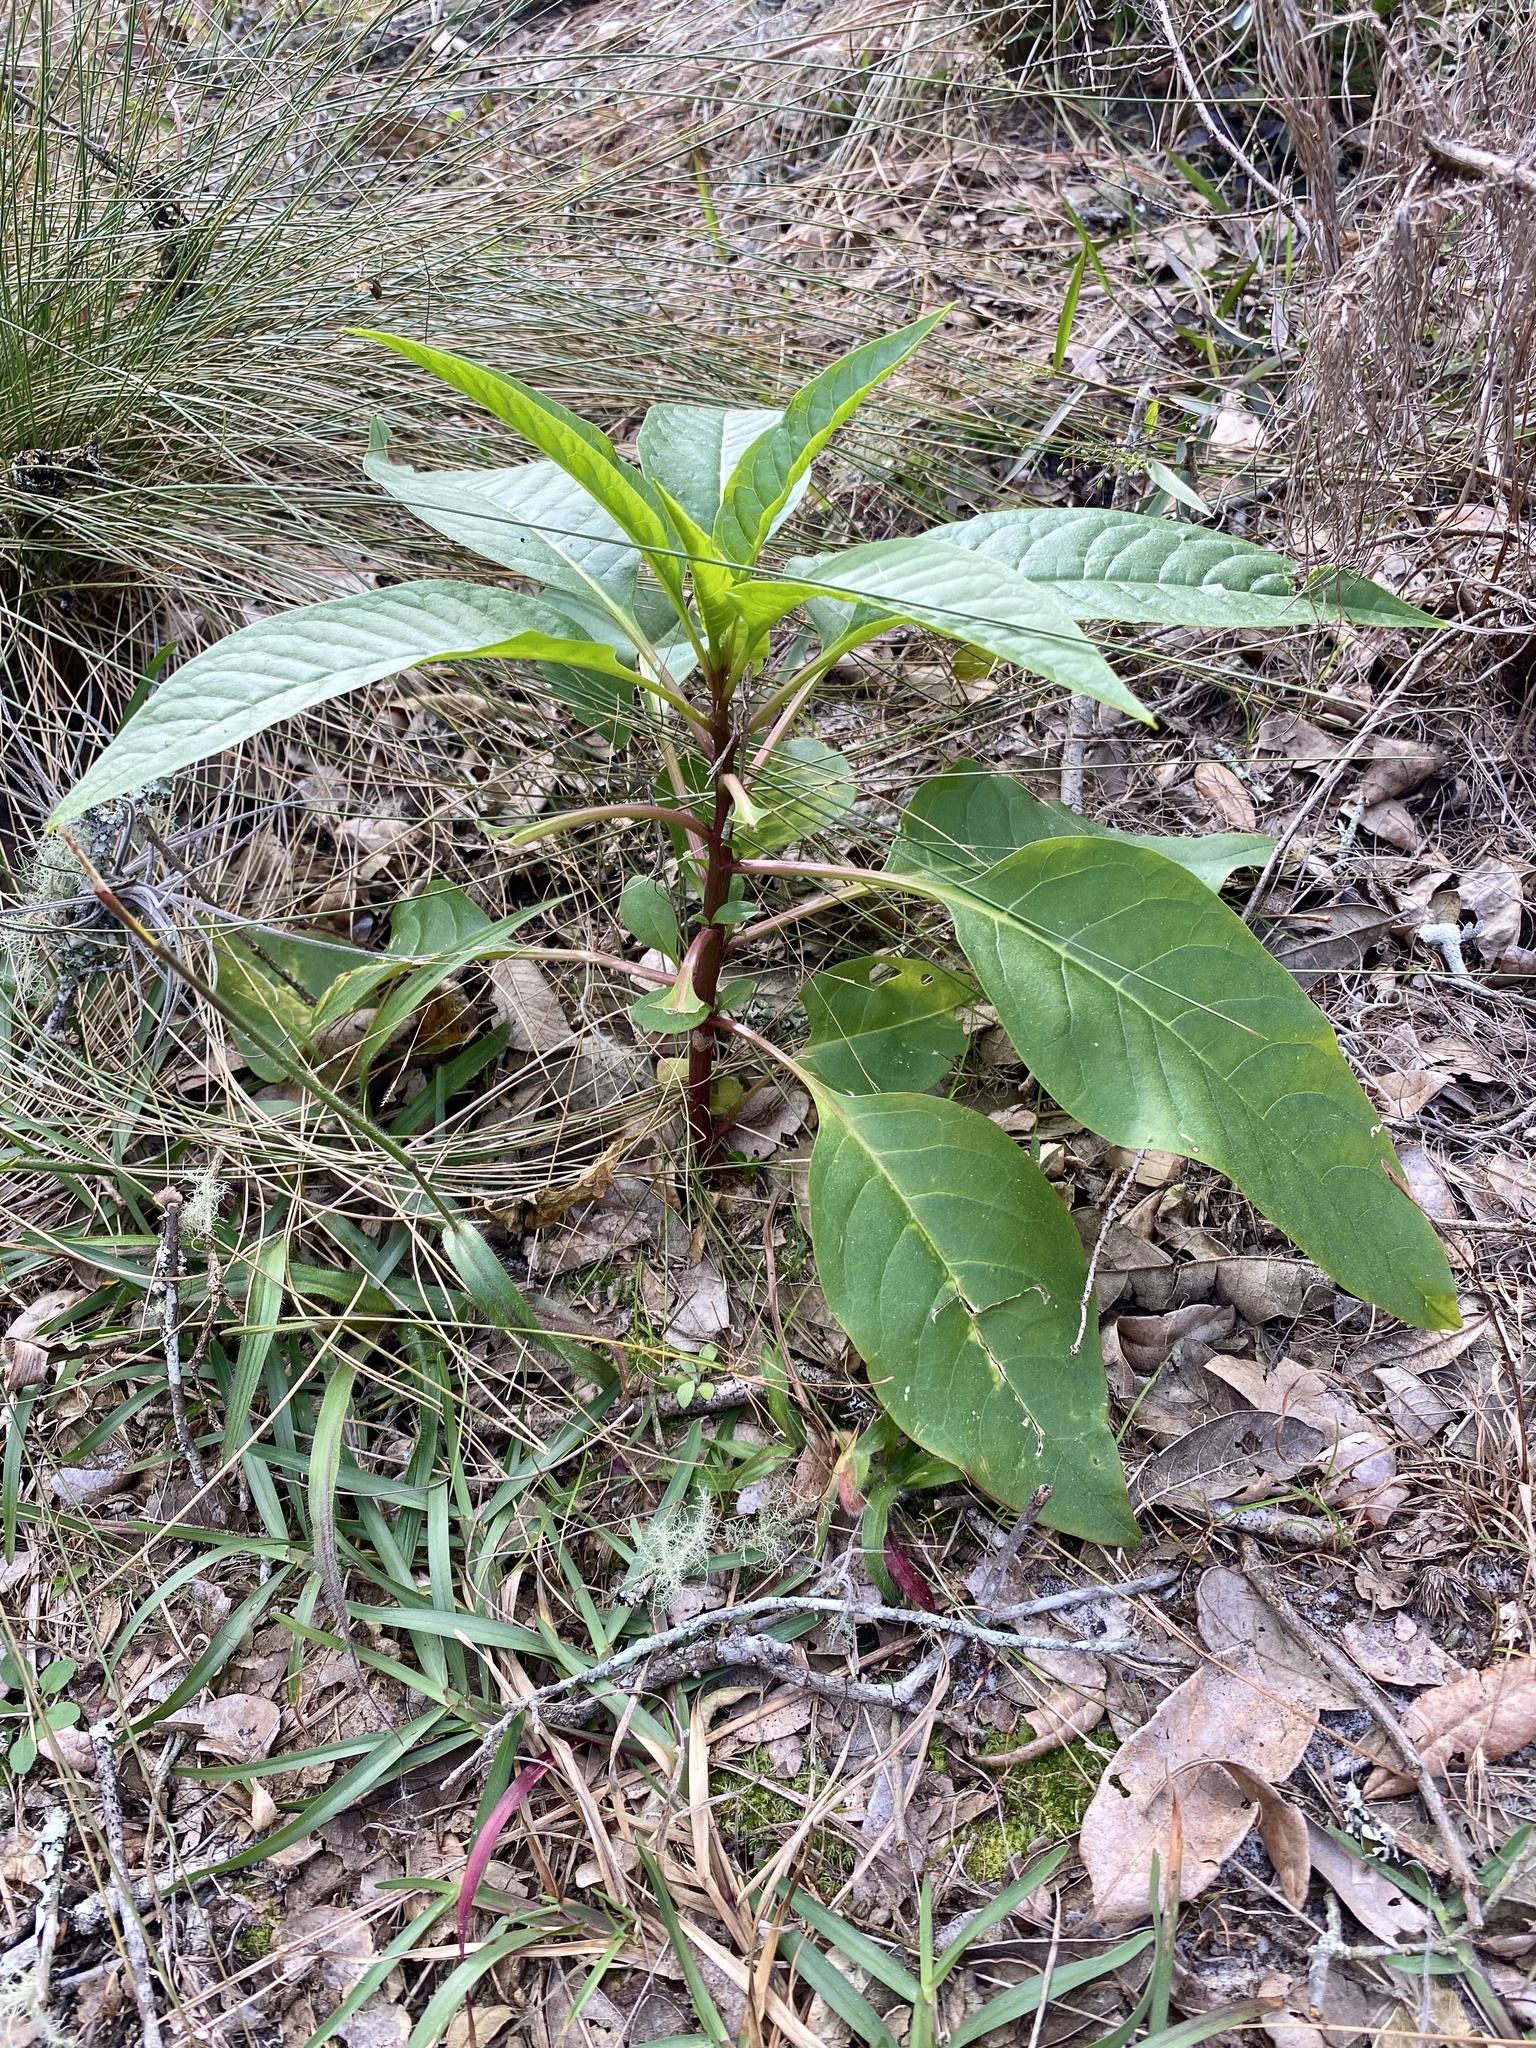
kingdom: Plantae
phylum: Tracheophyta
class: Magnoliopsida
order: Caryophyllales
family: Phytolaccaceae
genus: Phytolacca
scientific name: Phytolacca americana
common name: American pokeweed
